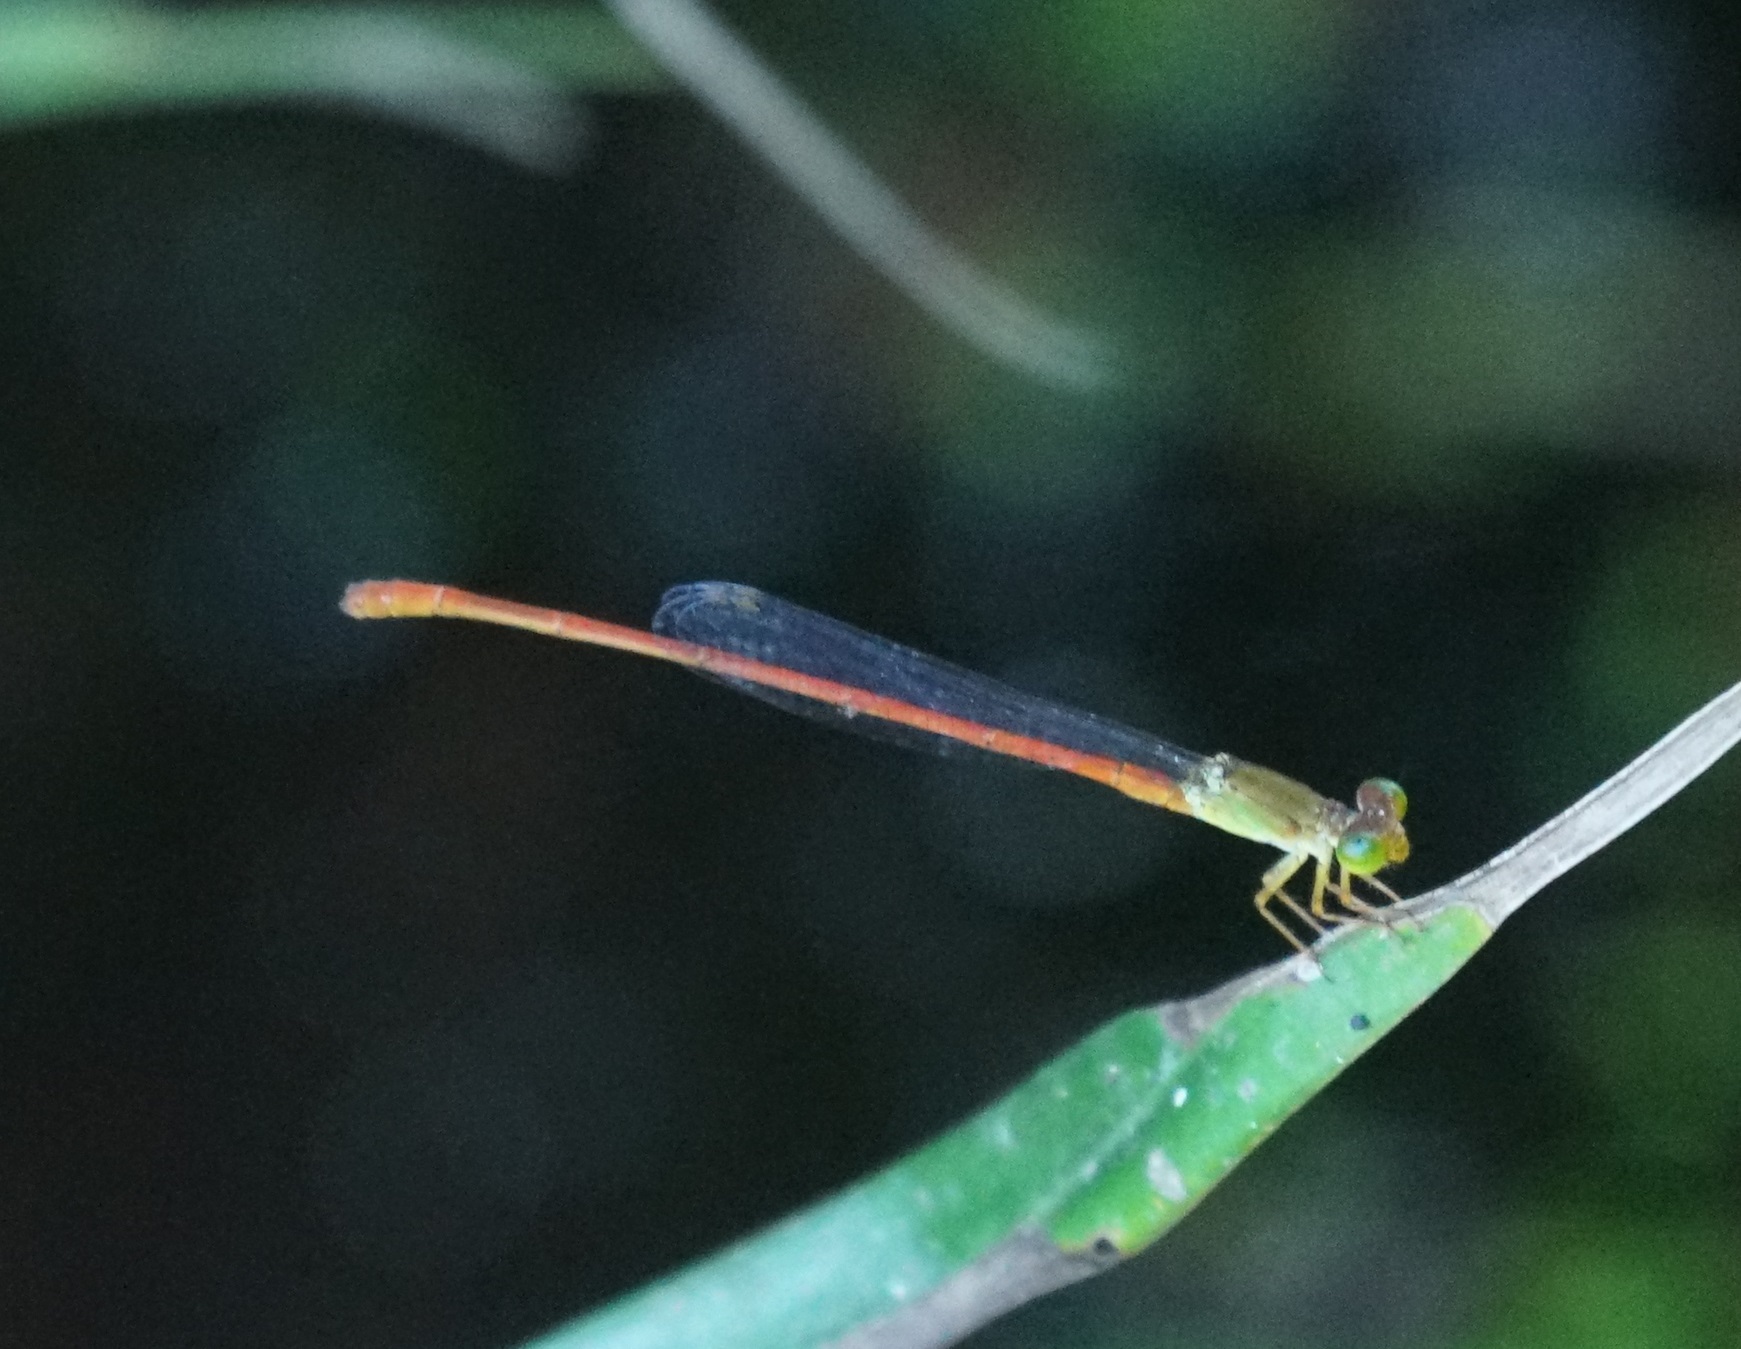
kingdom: Animalia
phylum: Arthropoda
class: Insecta
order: Odonata
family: Coenagrionidae
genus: Ceriagrion
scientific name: Ceriagrion aeruginosum
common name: Redtail
